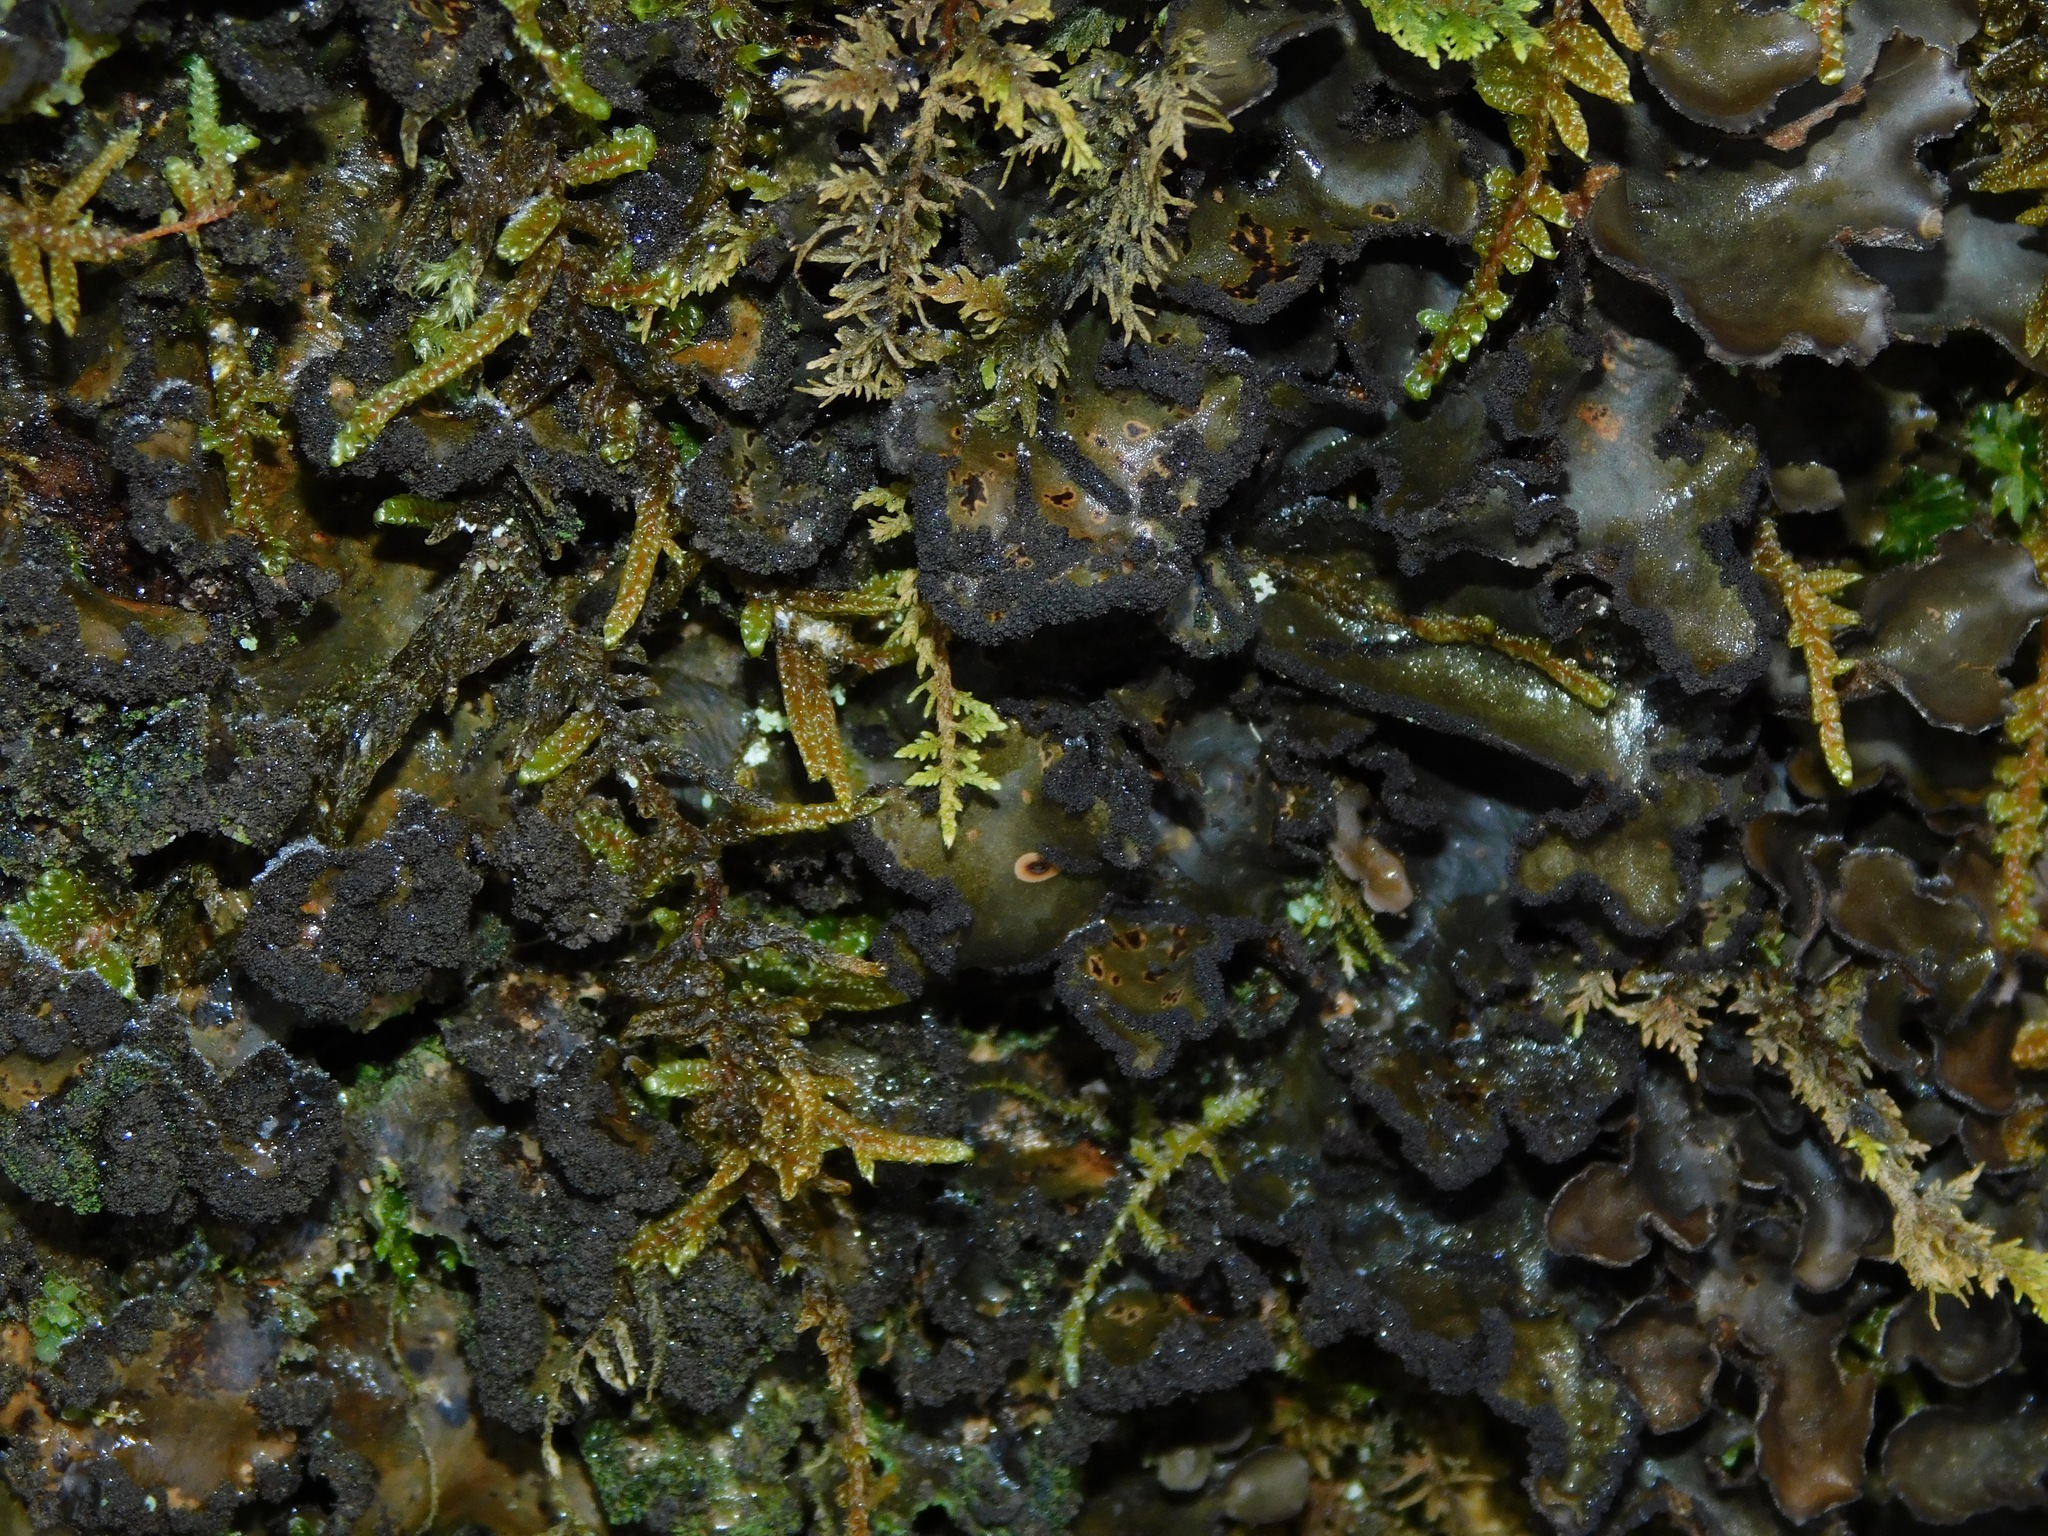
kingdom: Fungi
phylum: Ascomycota
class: Lecanoromycetes
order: Peltigerales
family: Lobariaceae
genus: Sticta
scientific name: Sticta beauvoisii
